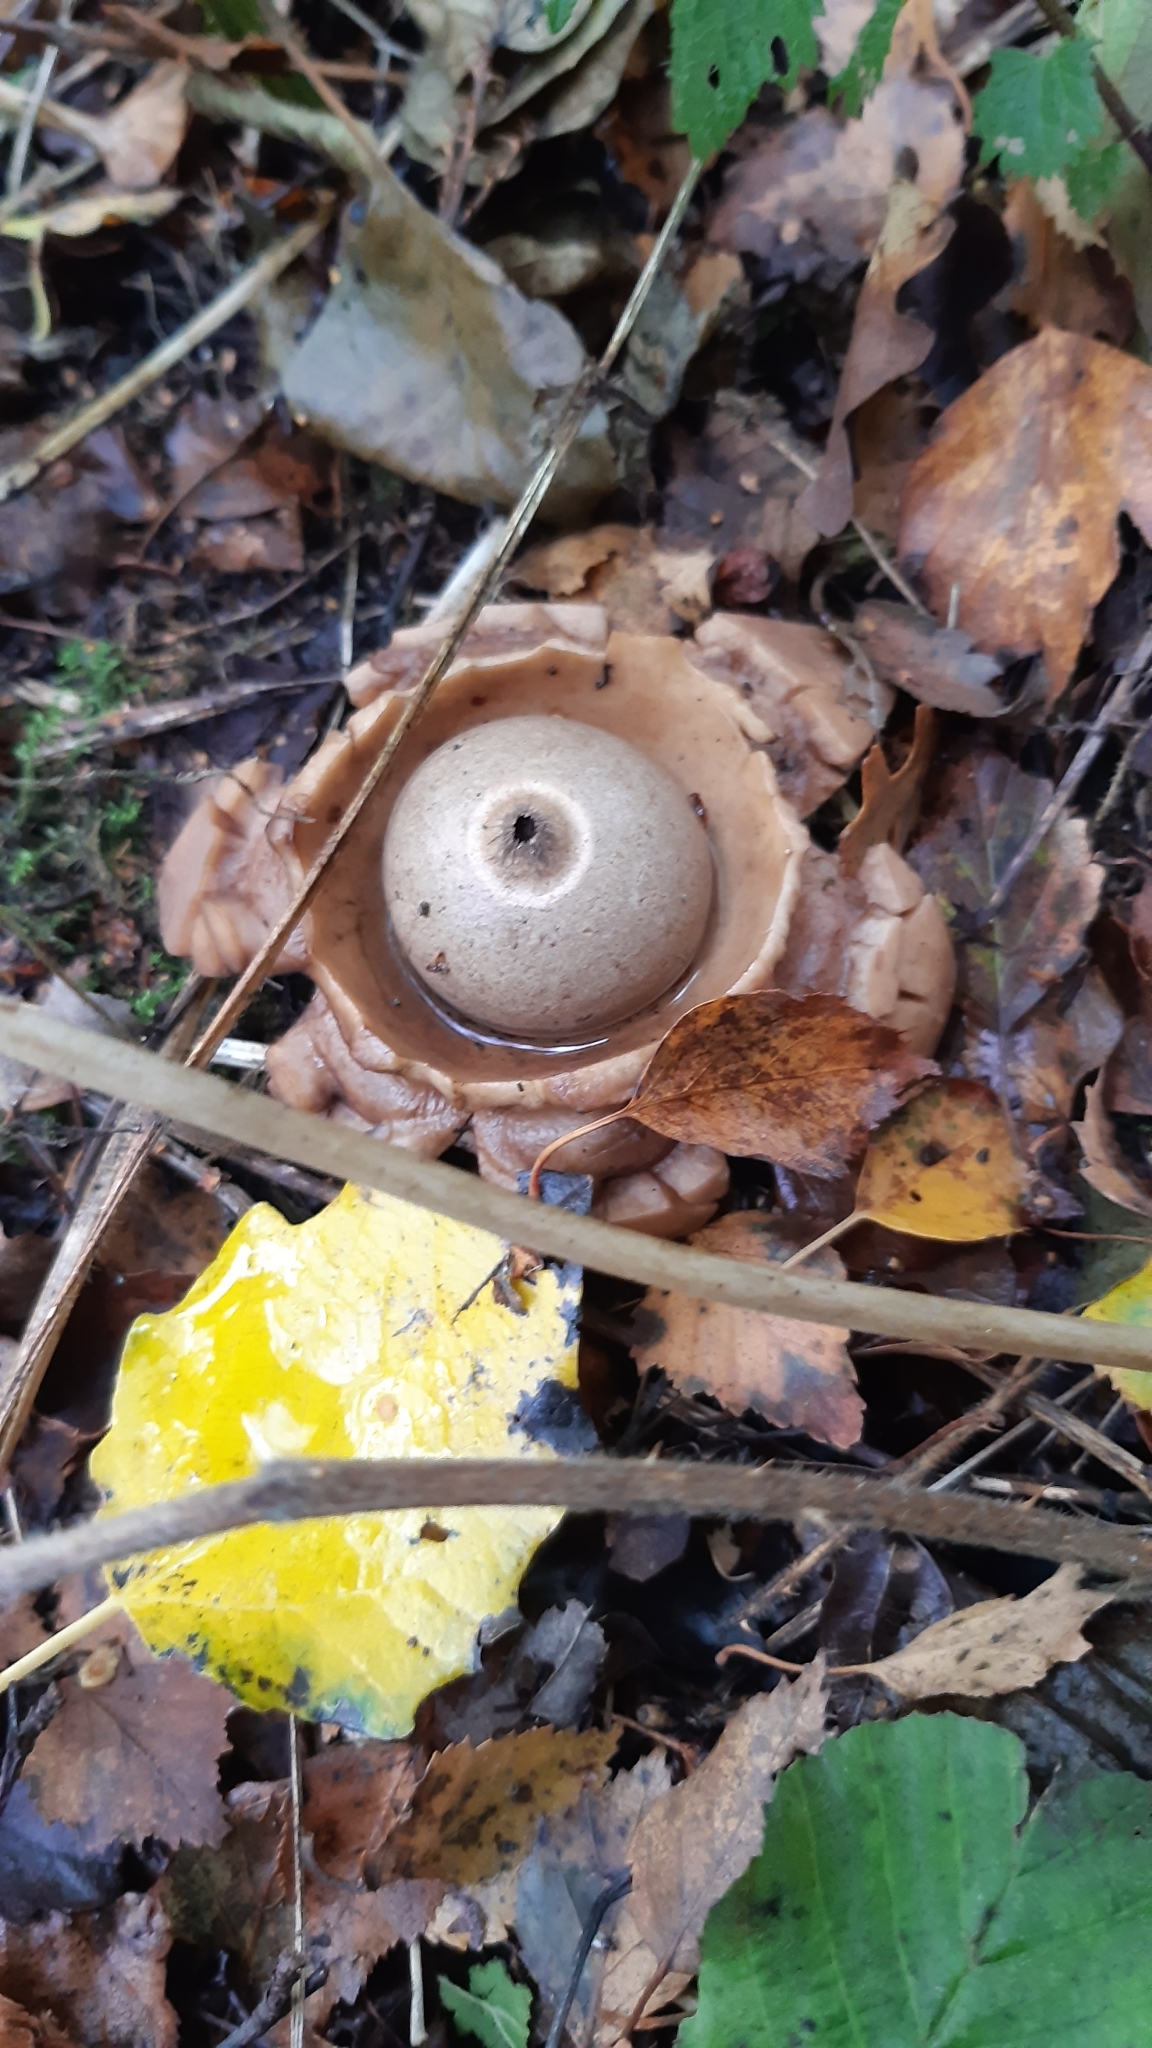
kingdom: Fungi
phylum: Basidiomycota
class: Agaricomycetes
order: Geastrales
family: Geastraceae
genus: Geastrum
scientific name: Geastrum triplex
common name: Collared earthstar
